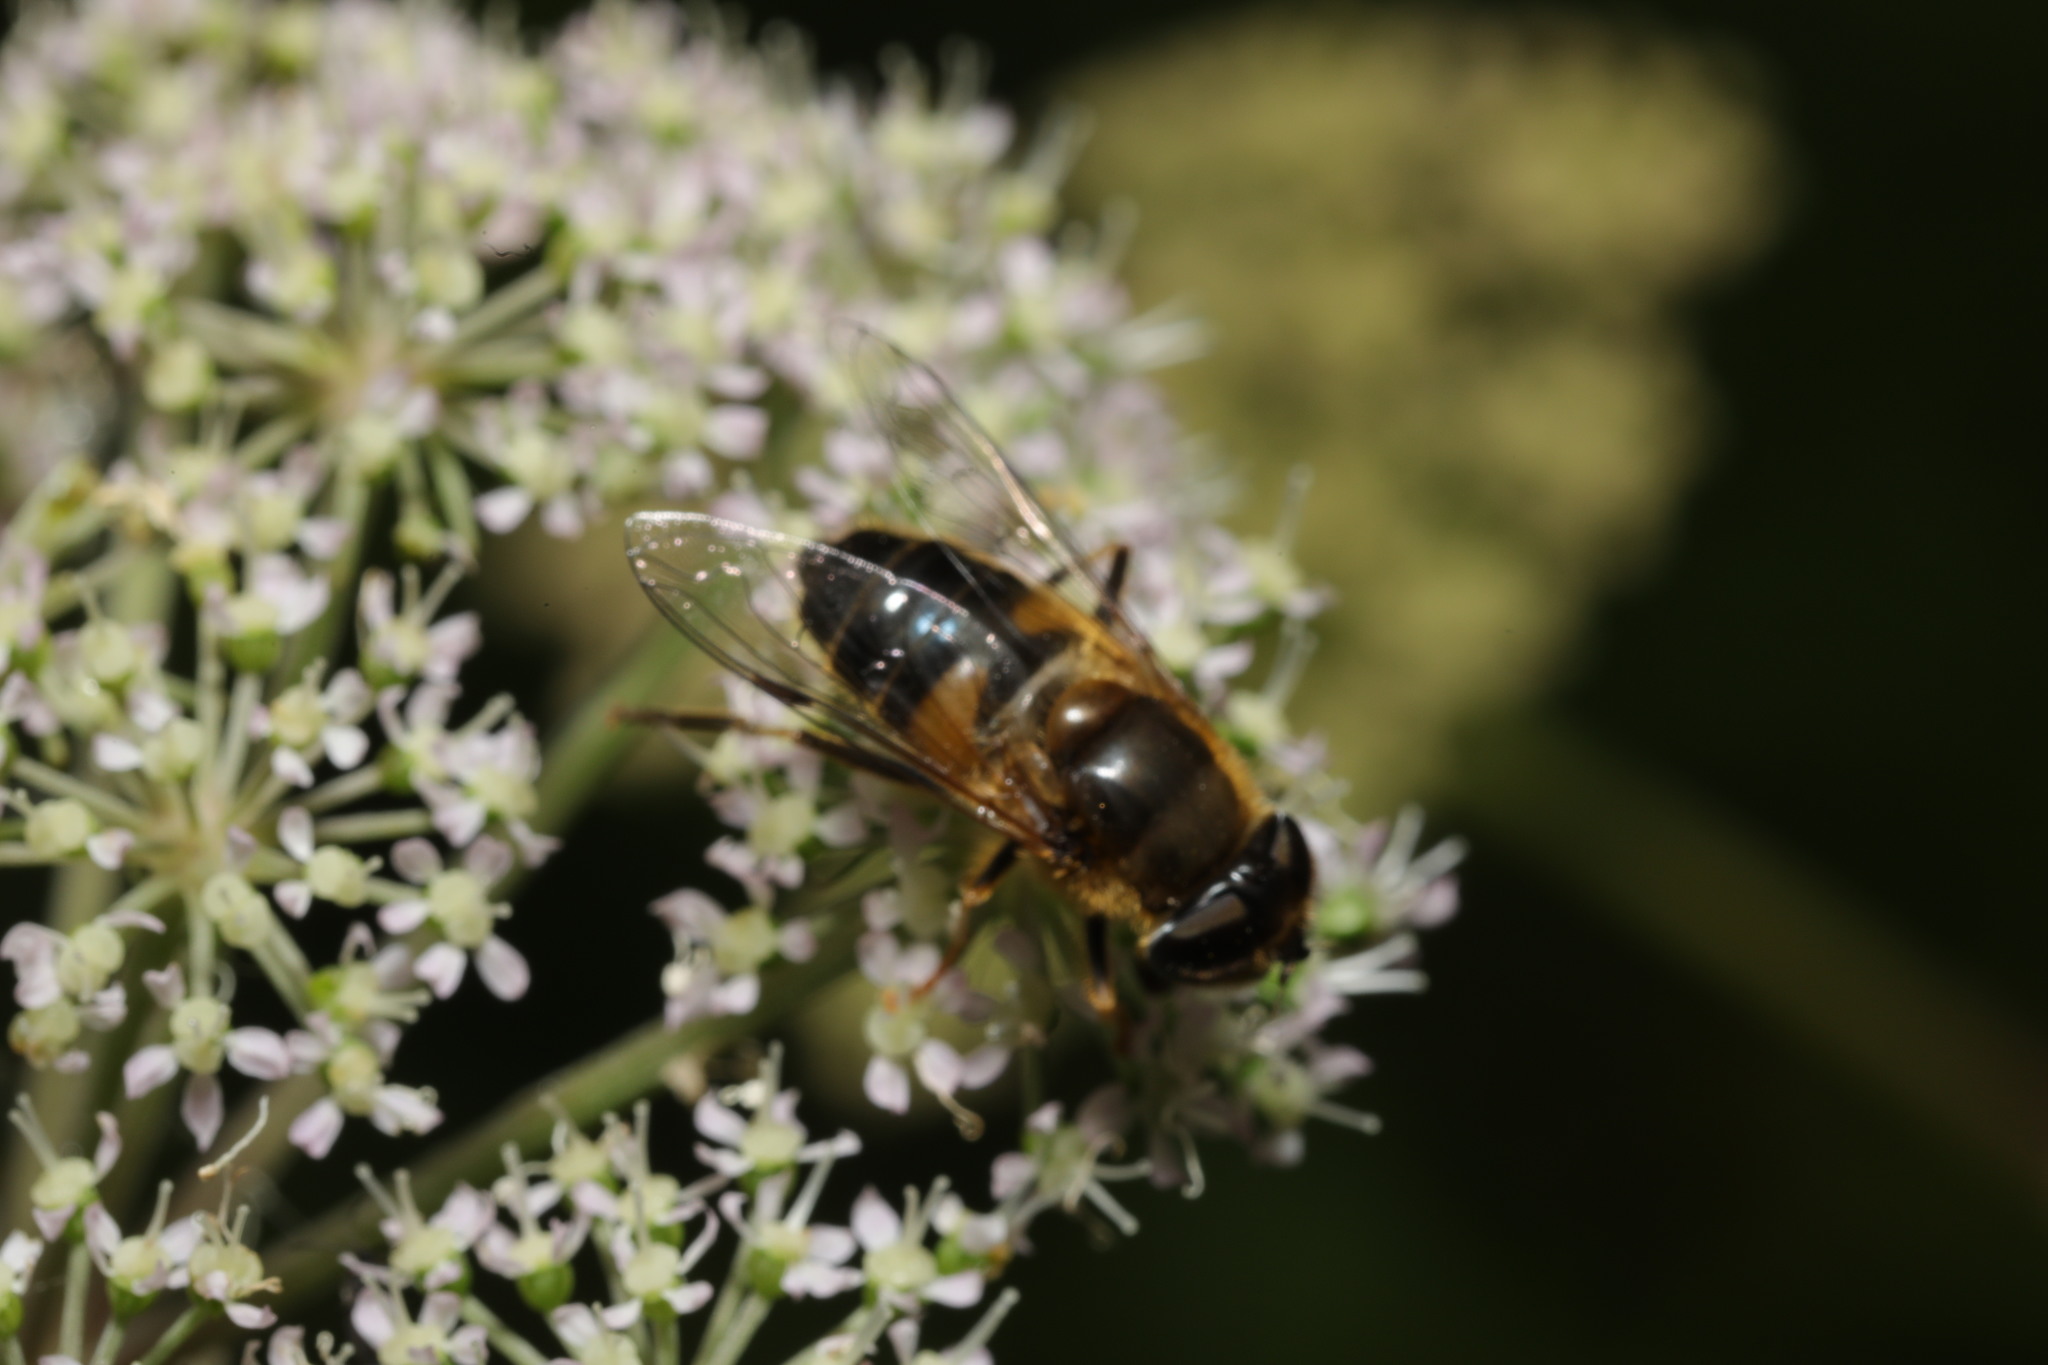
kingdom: Animalia
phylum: Arthropoda
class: Insecta
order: Diptera
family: Syrphidae
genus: Eristalis
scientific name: Eristalis pertinax
